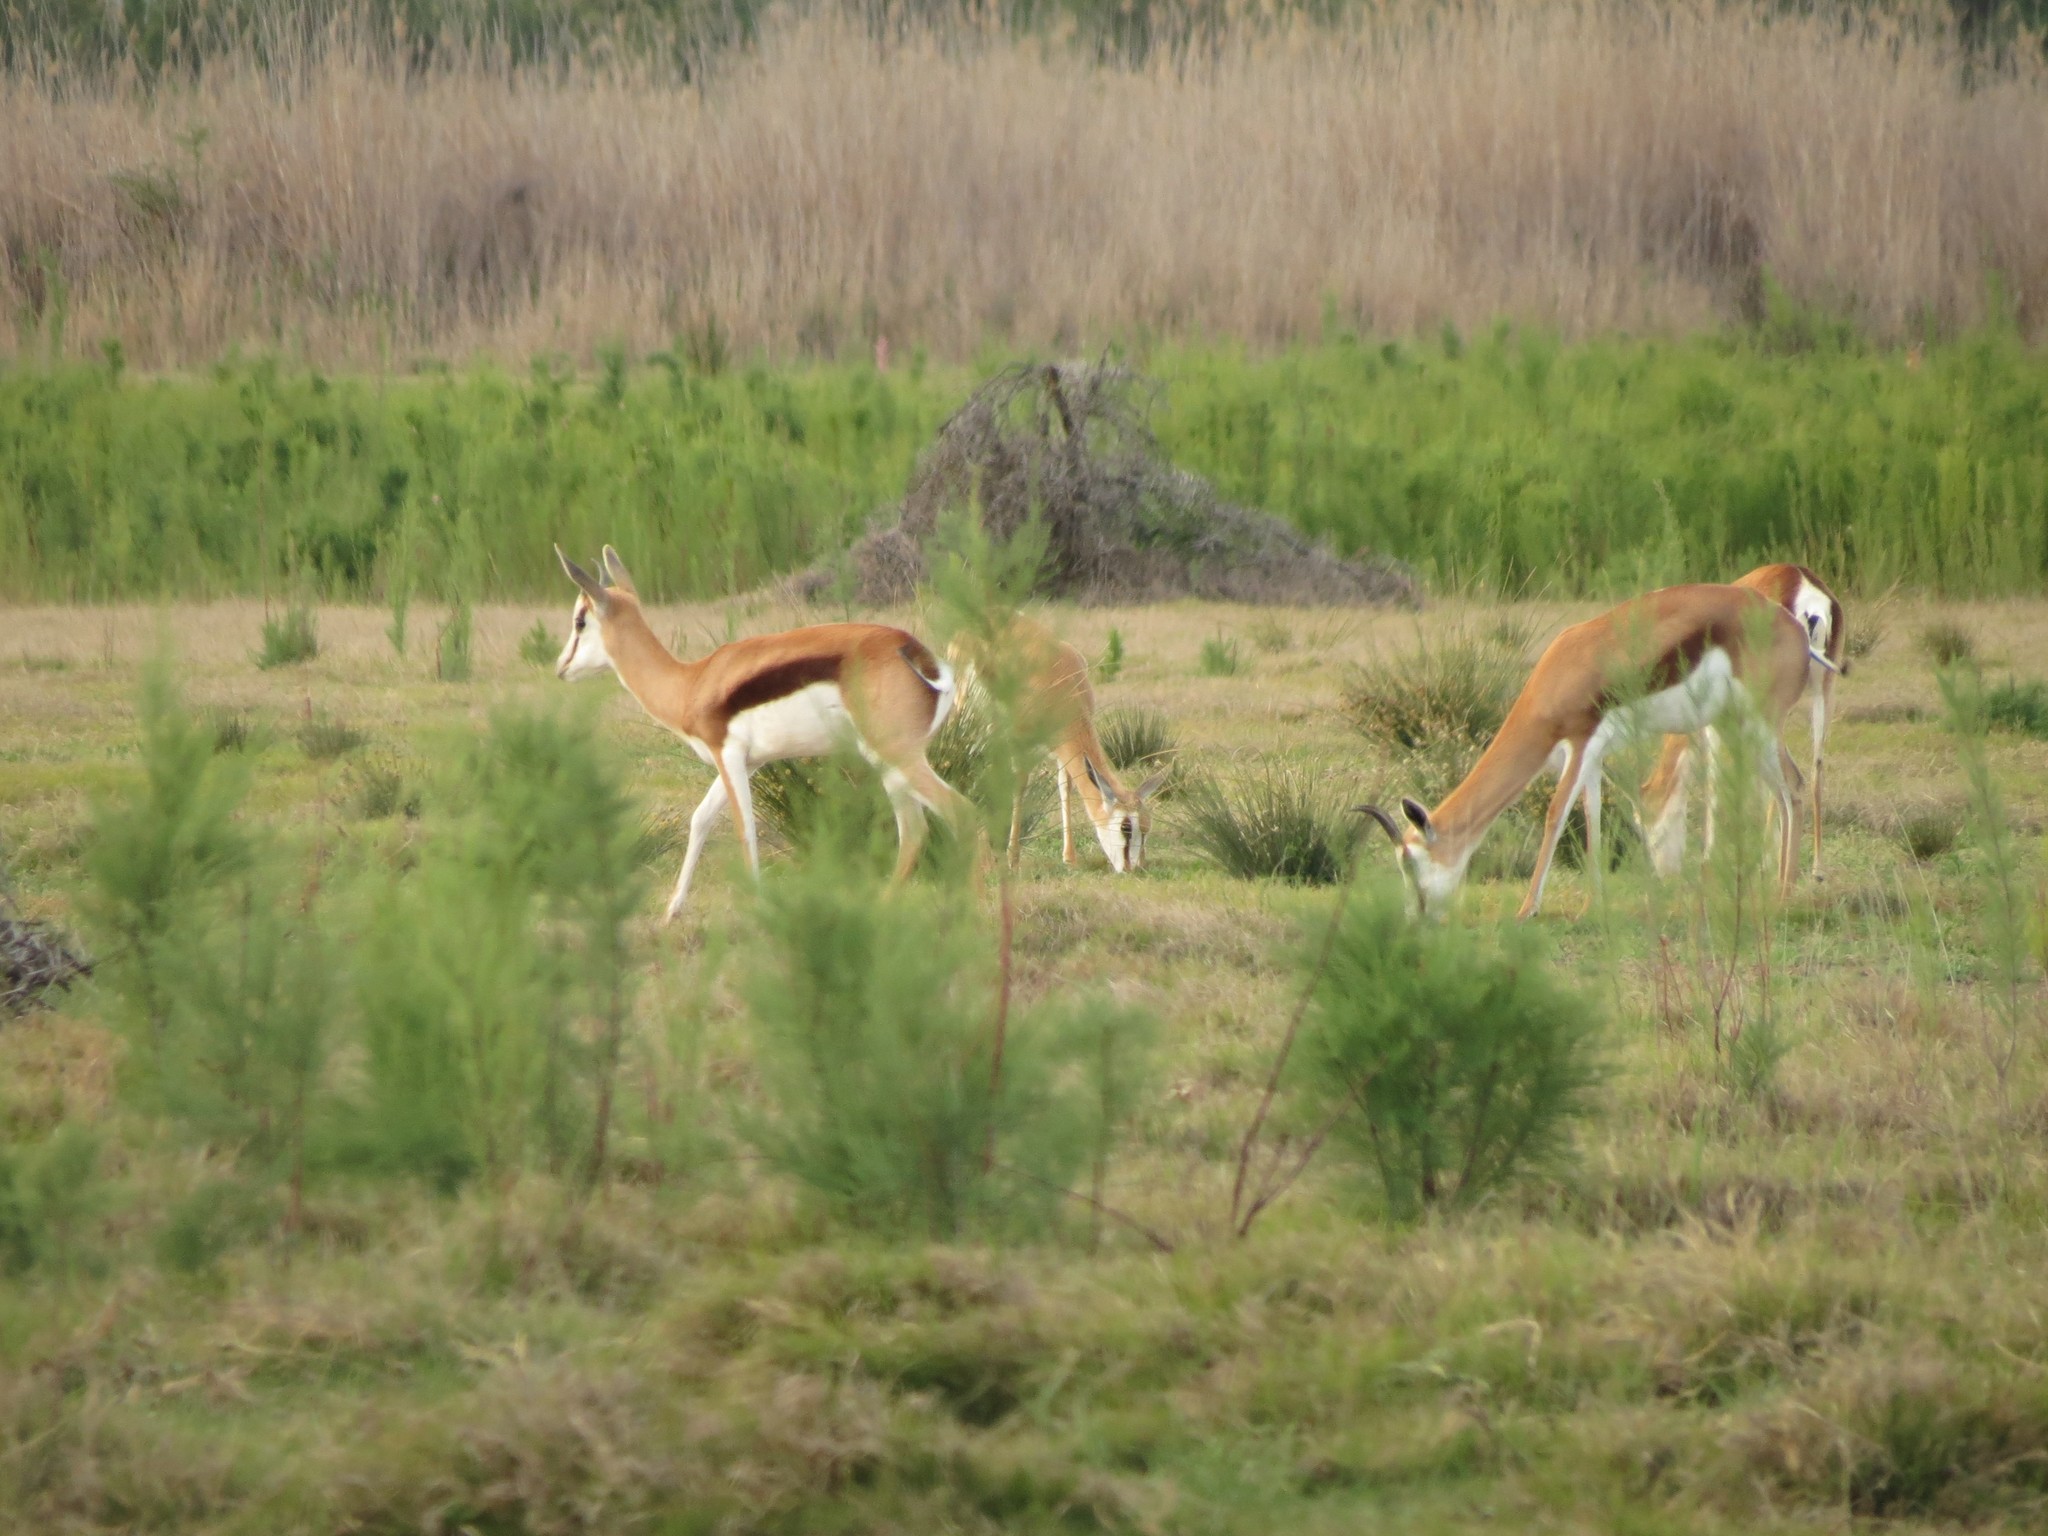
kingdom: Animalia
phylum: Chordata
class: Mammalia
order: Artiodactyla
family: Bovidae
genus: Antidorcas
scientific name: Antidorcas marsupialis
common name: Springbok
